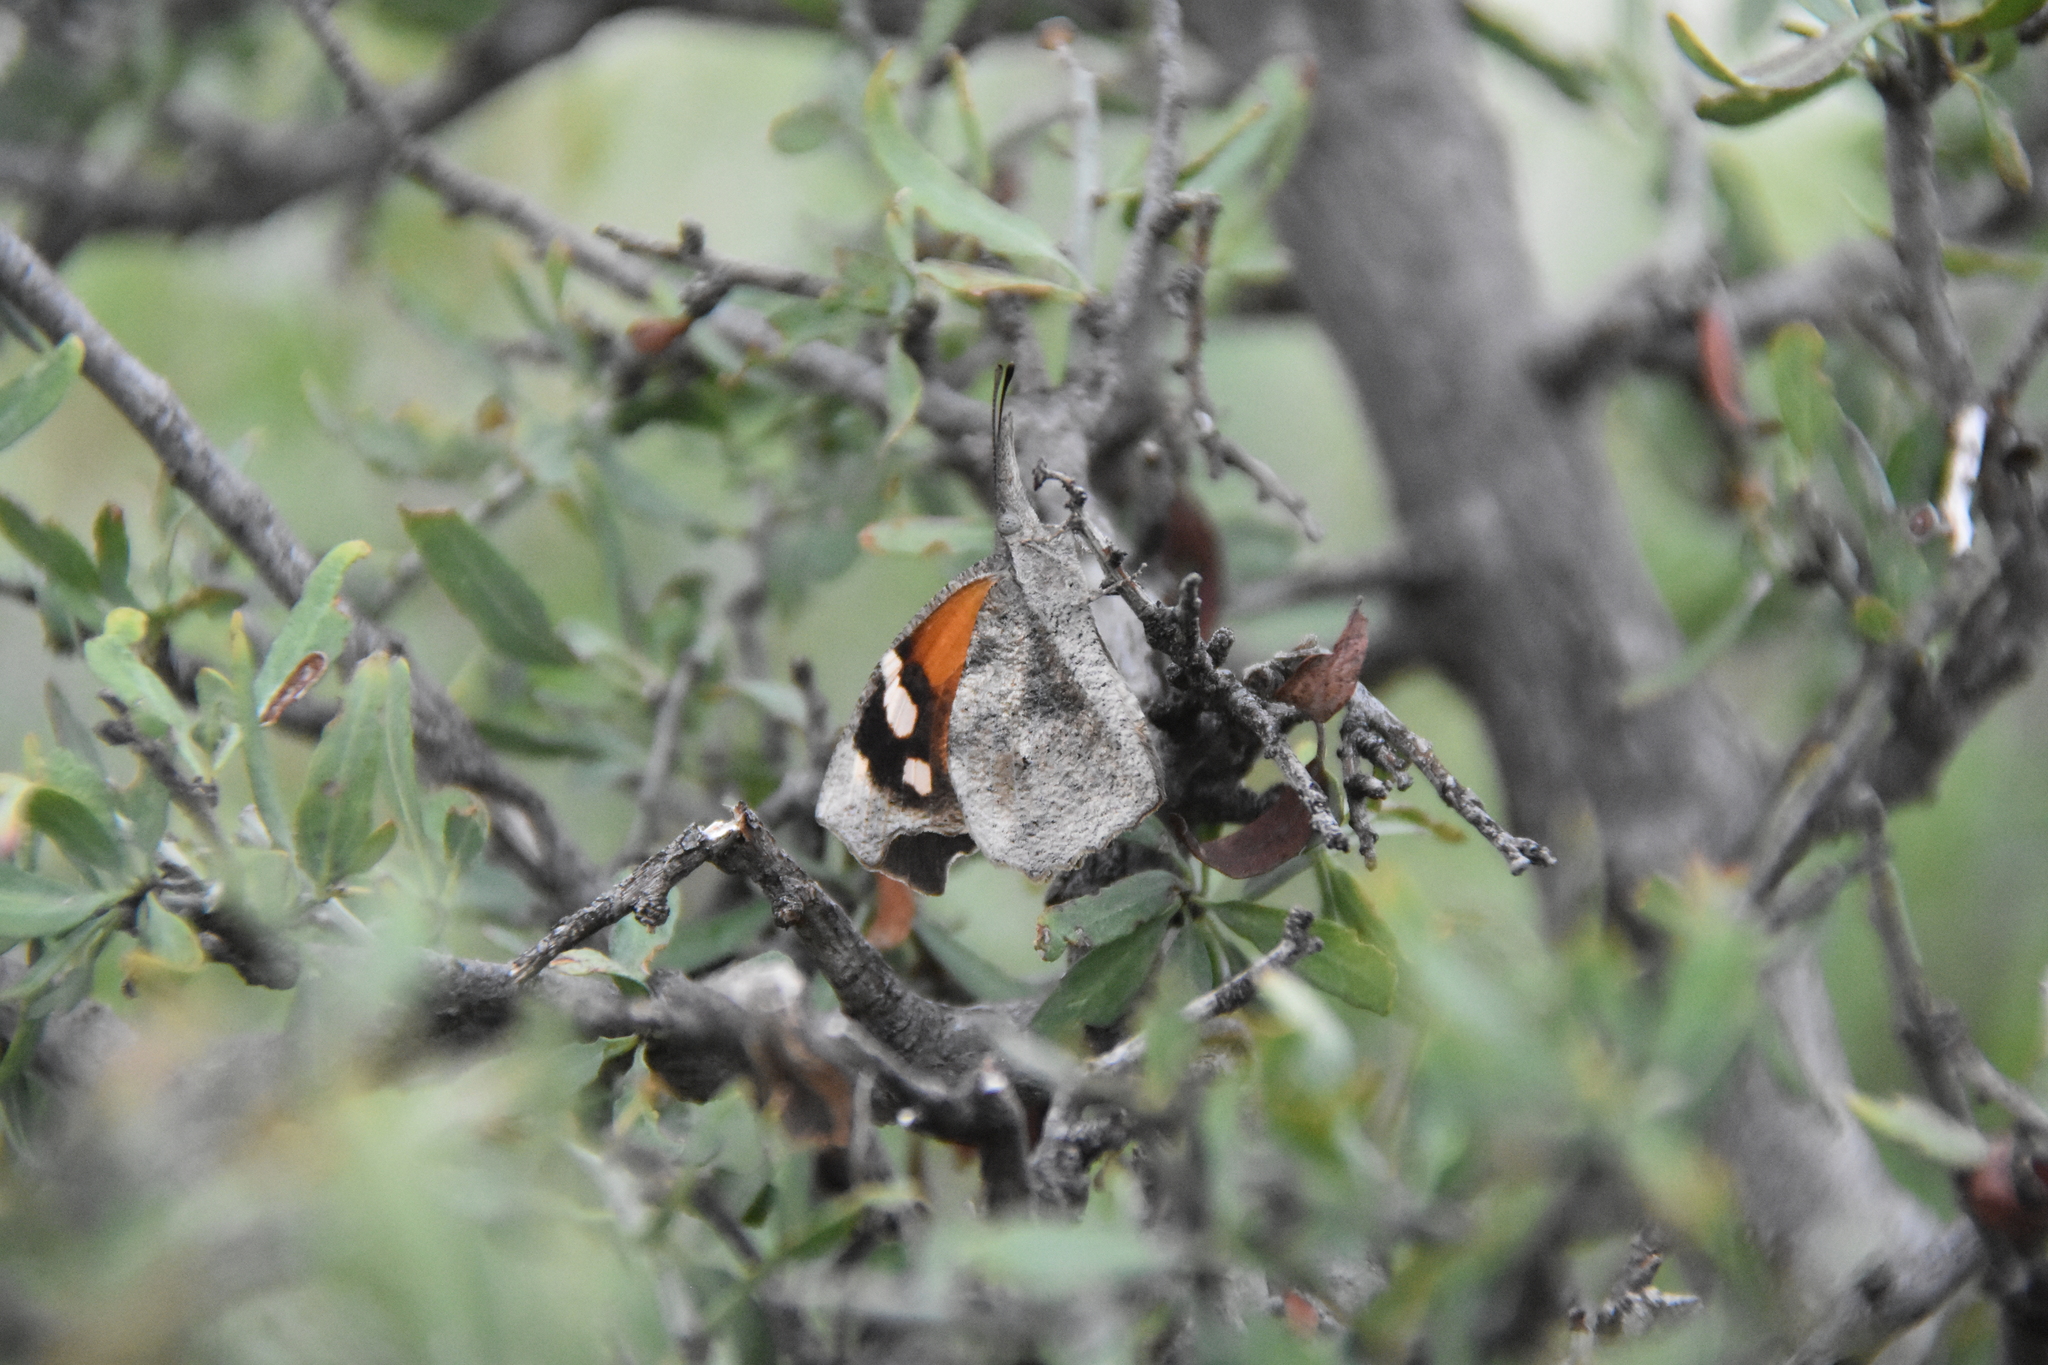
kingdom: Animalia
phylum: Arthropoda
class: Insecta
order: Lepidoptera
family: Nymphalidae
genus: Libytheana
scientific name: Libytheana carinenta
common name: American snout
